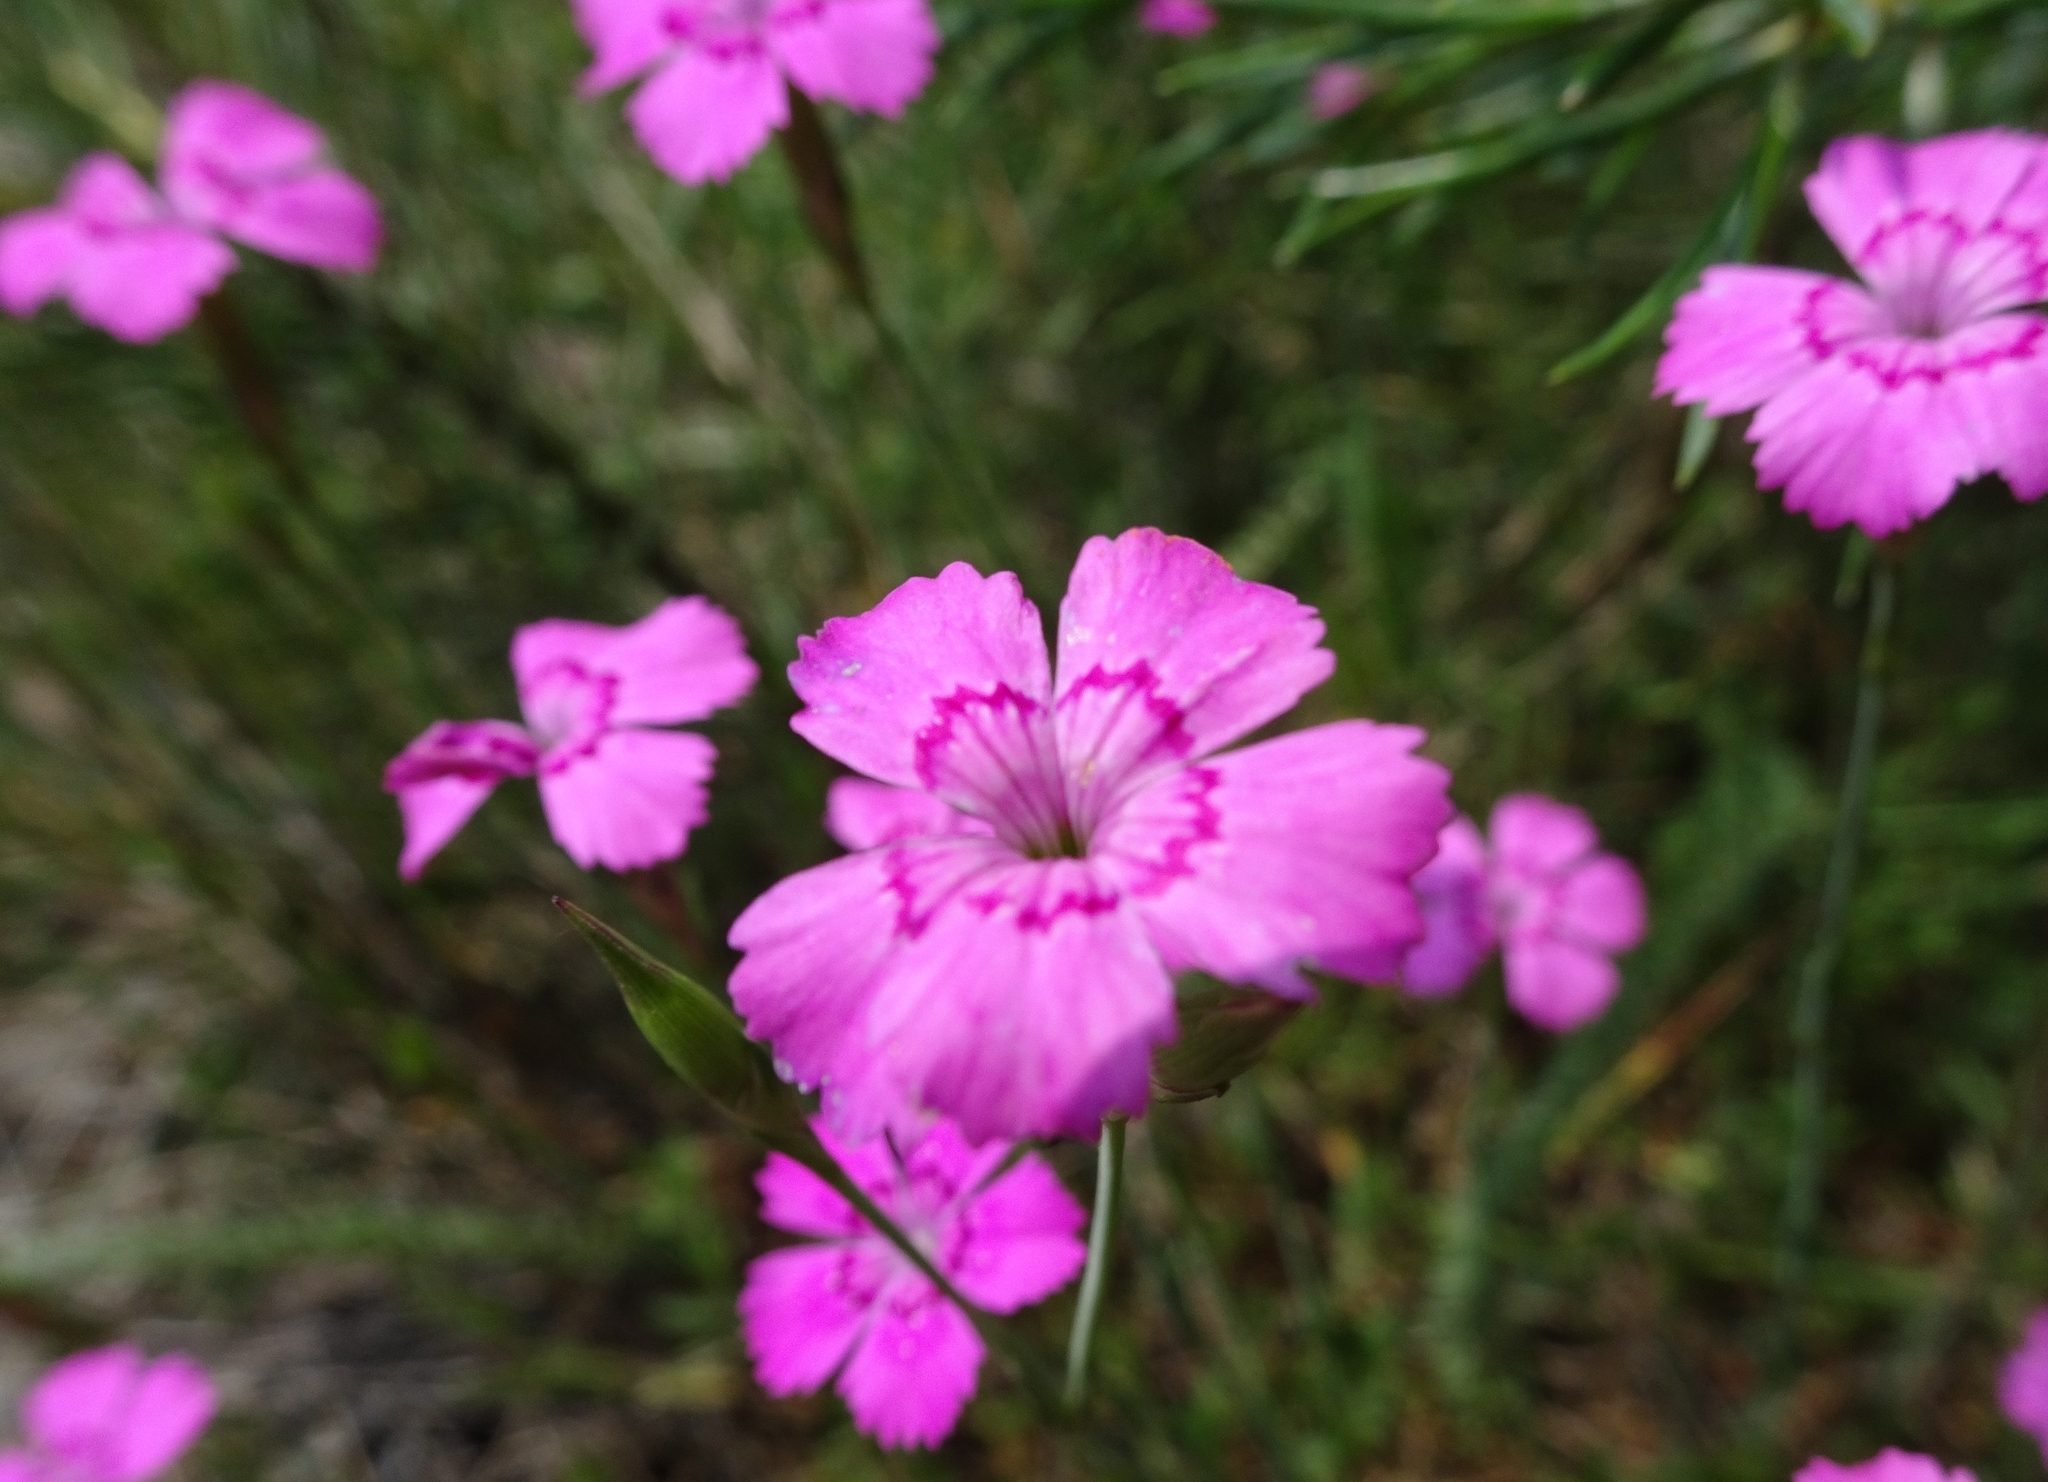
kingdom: Plantae
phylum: Tracheophyta
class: Magnoliopsida
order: Caryophyllales
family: Caryophyllaceae
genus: Dianthus
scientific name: Dianthus deltoides
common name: Maiden pink
